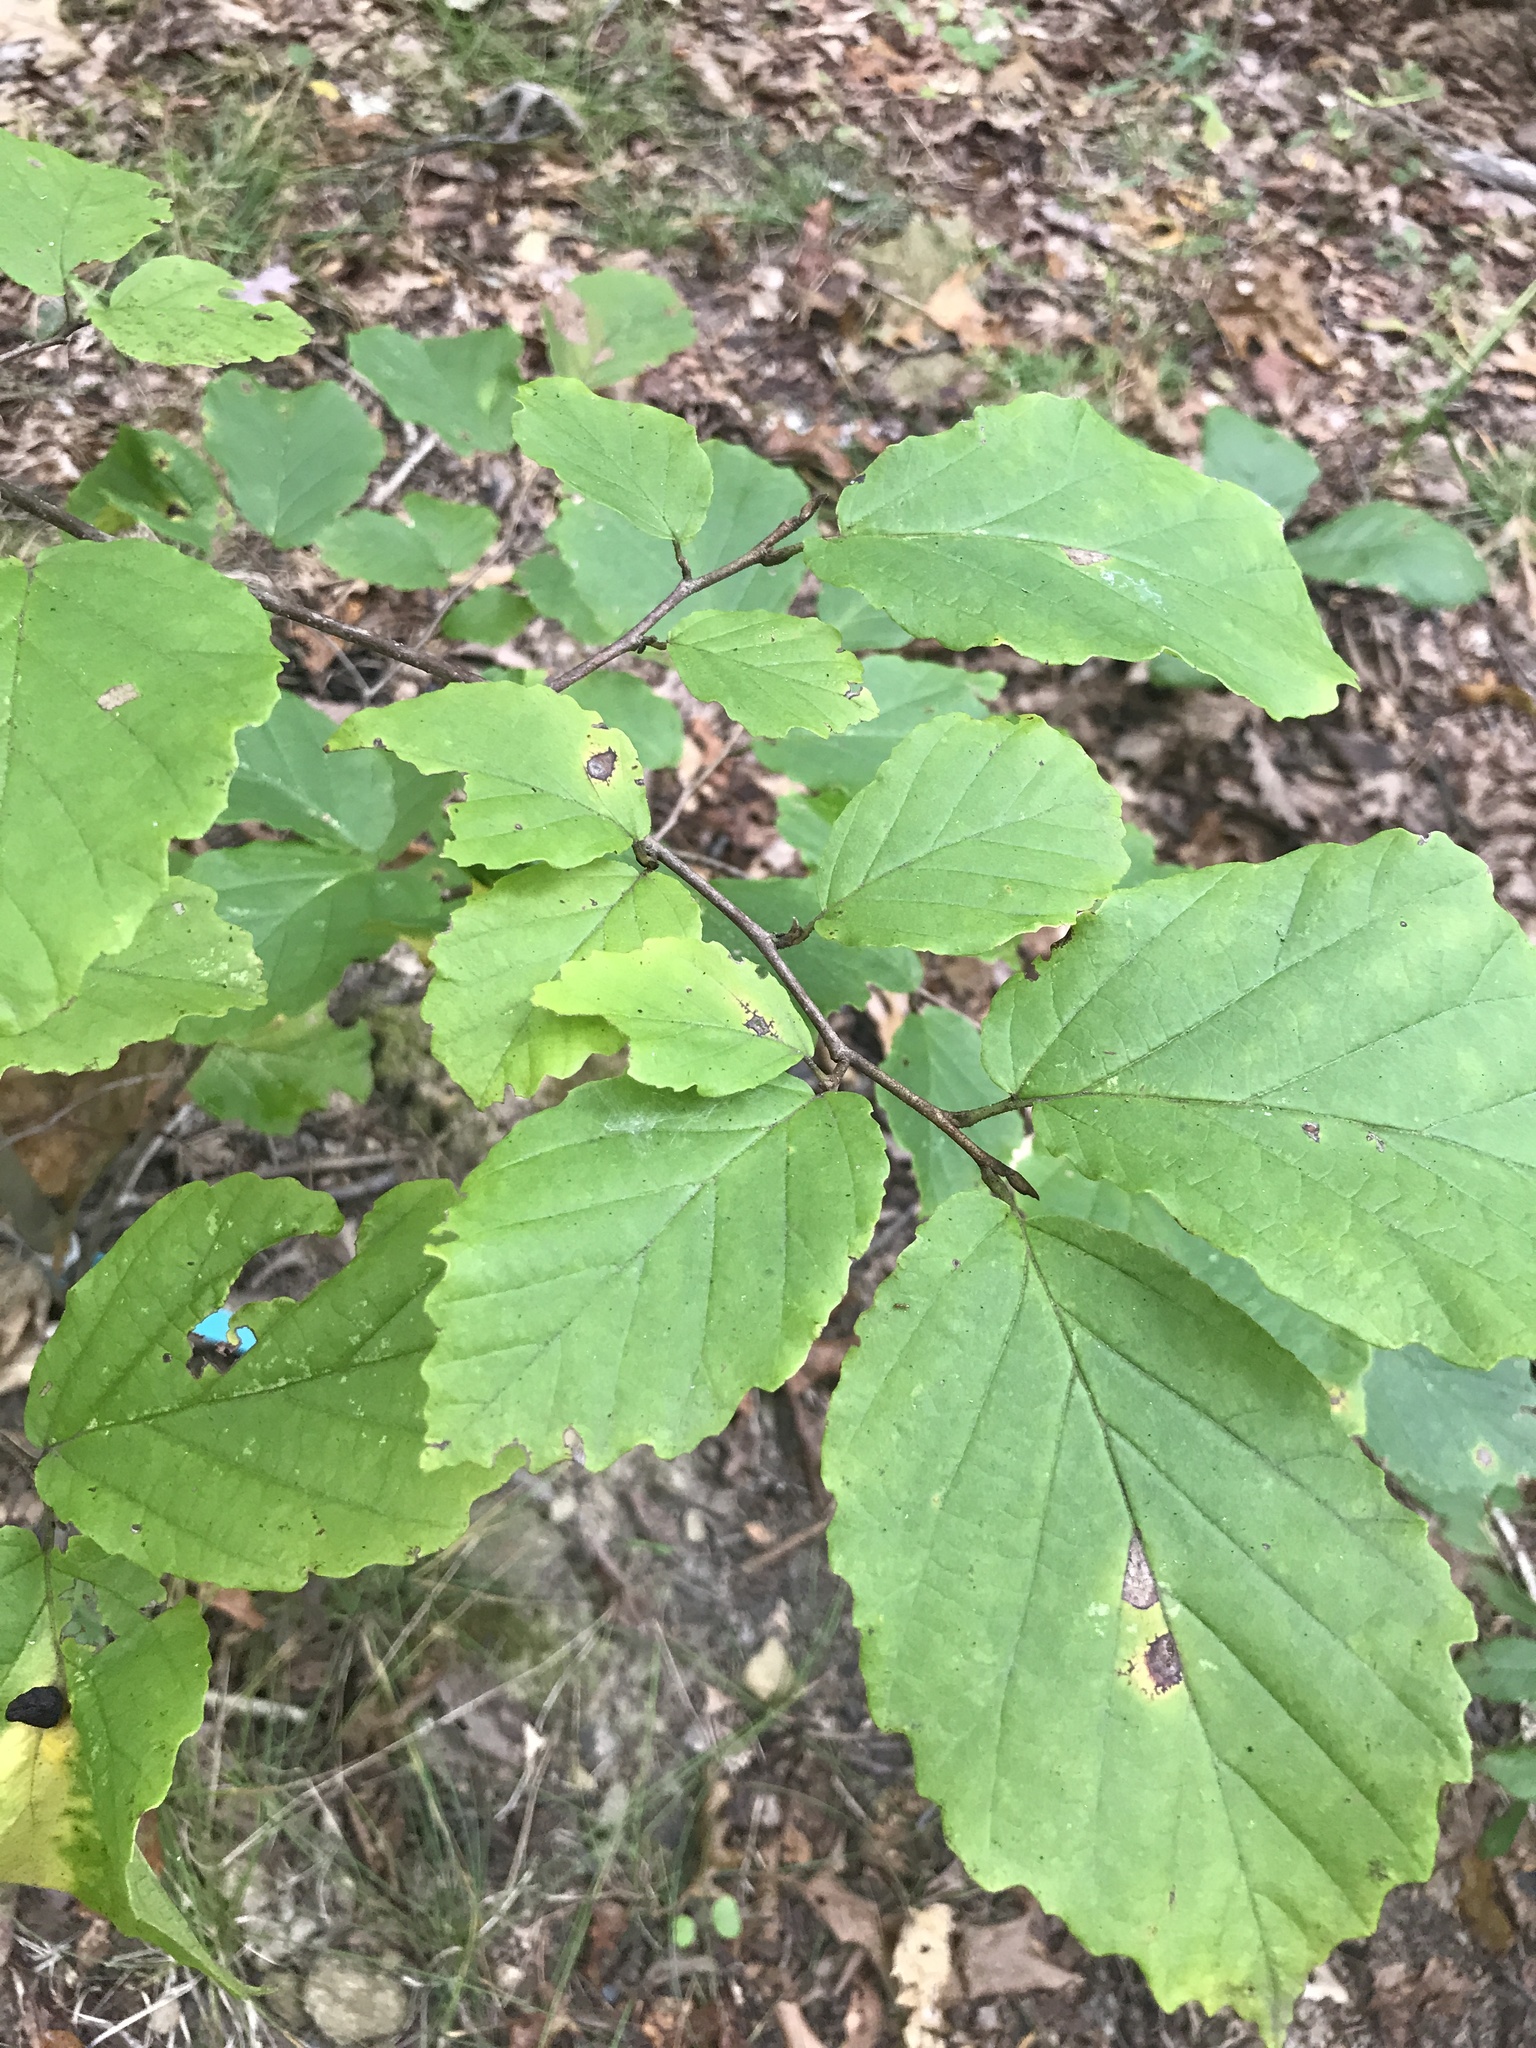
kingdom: Plantae
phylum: Tracheophyta
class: Magnoliopsida
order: Saxifragales
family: Hamamelidaceae
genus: Hamamelis
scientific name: Hamamelis virginiana
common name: Witch-hazel
